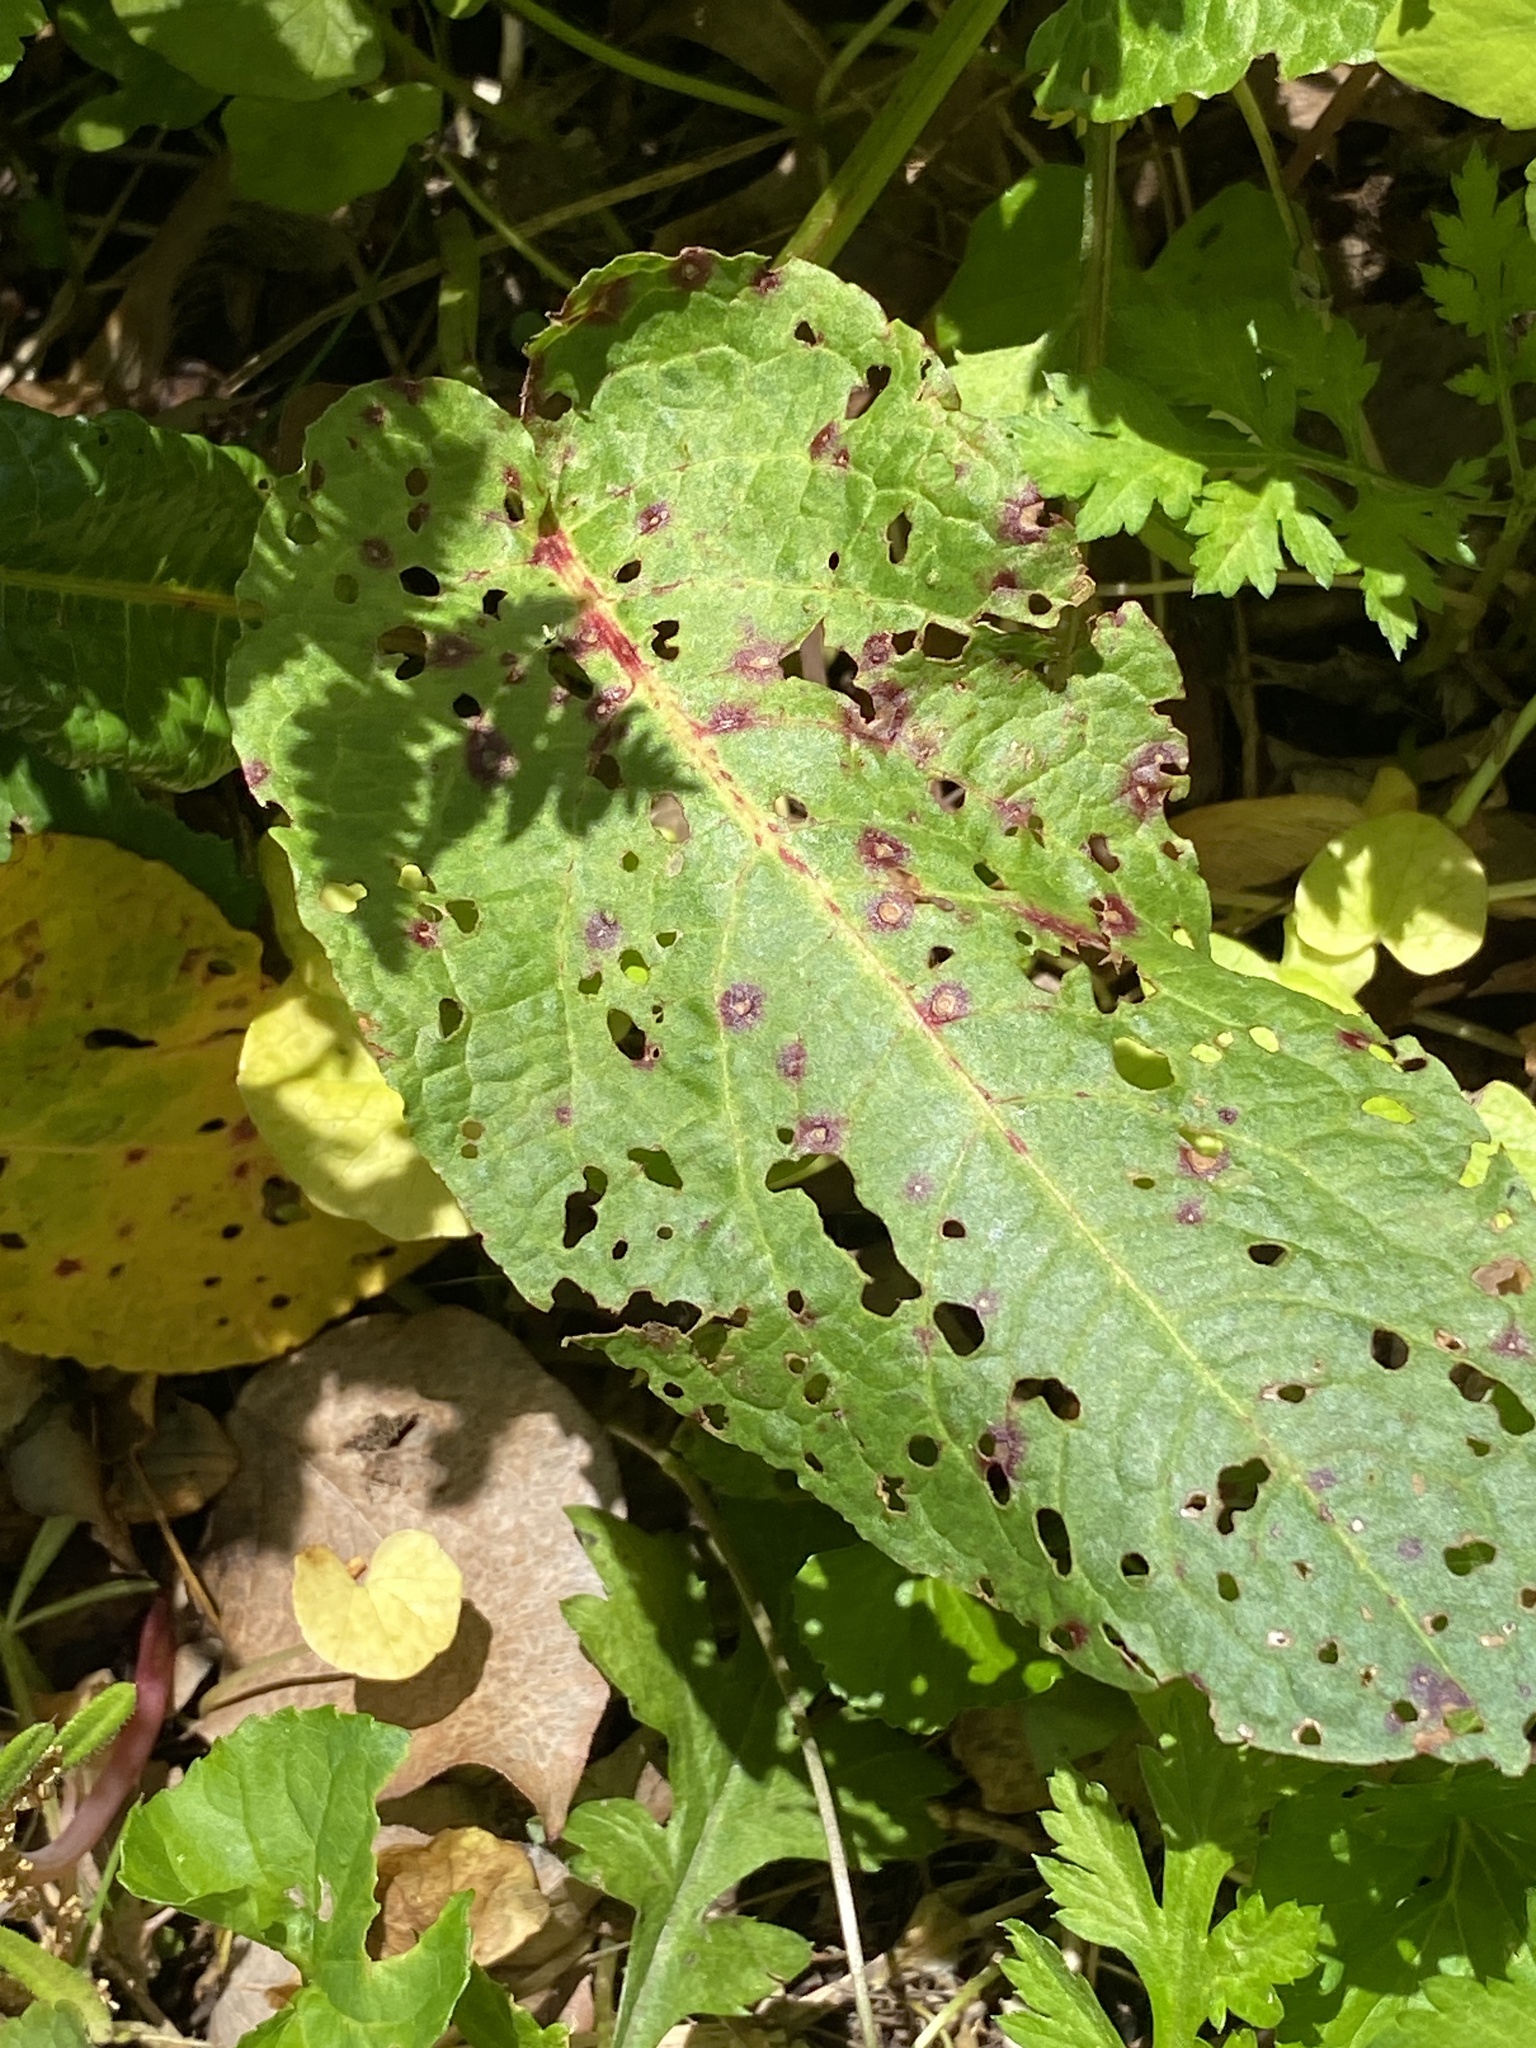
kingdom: Fungi
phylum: Ascomycota
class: Dothideomycetes
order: Mycosphaerellales
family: Mycosphaerellaceae
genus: Ramularia
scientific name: Ramularia rubella
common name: Red dock spot
